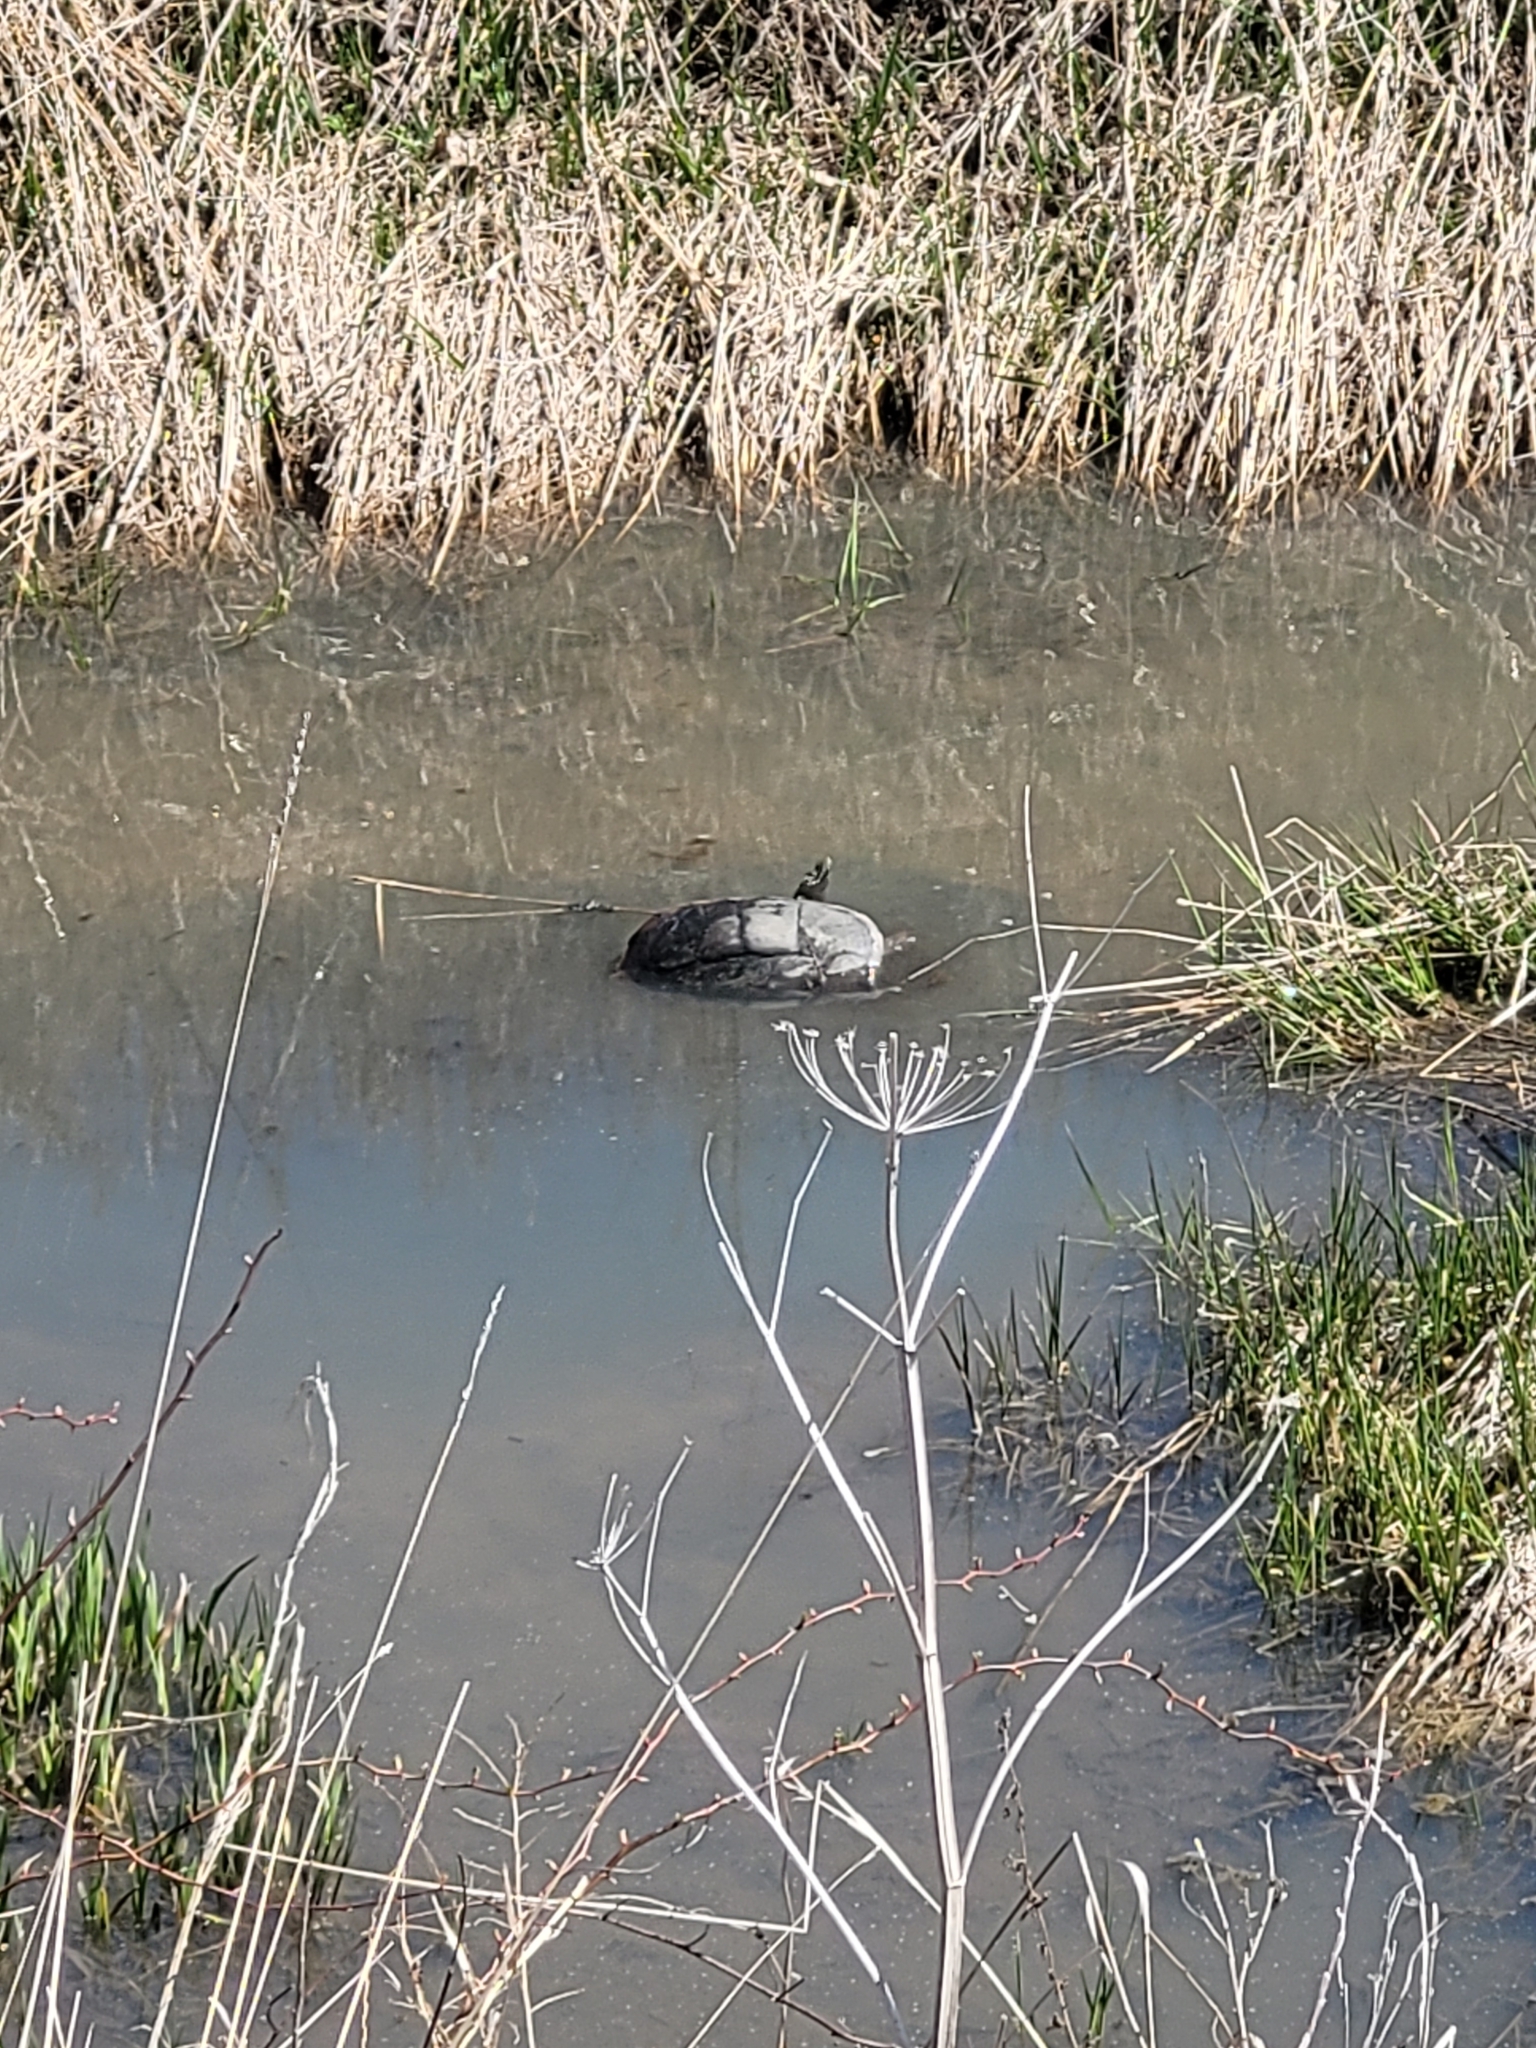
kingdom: Animalia
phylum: Chordata
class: Testudines
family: Chelydridae
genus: Chelydra
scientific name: Chelydra serpentina
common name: Common snapping turtle
